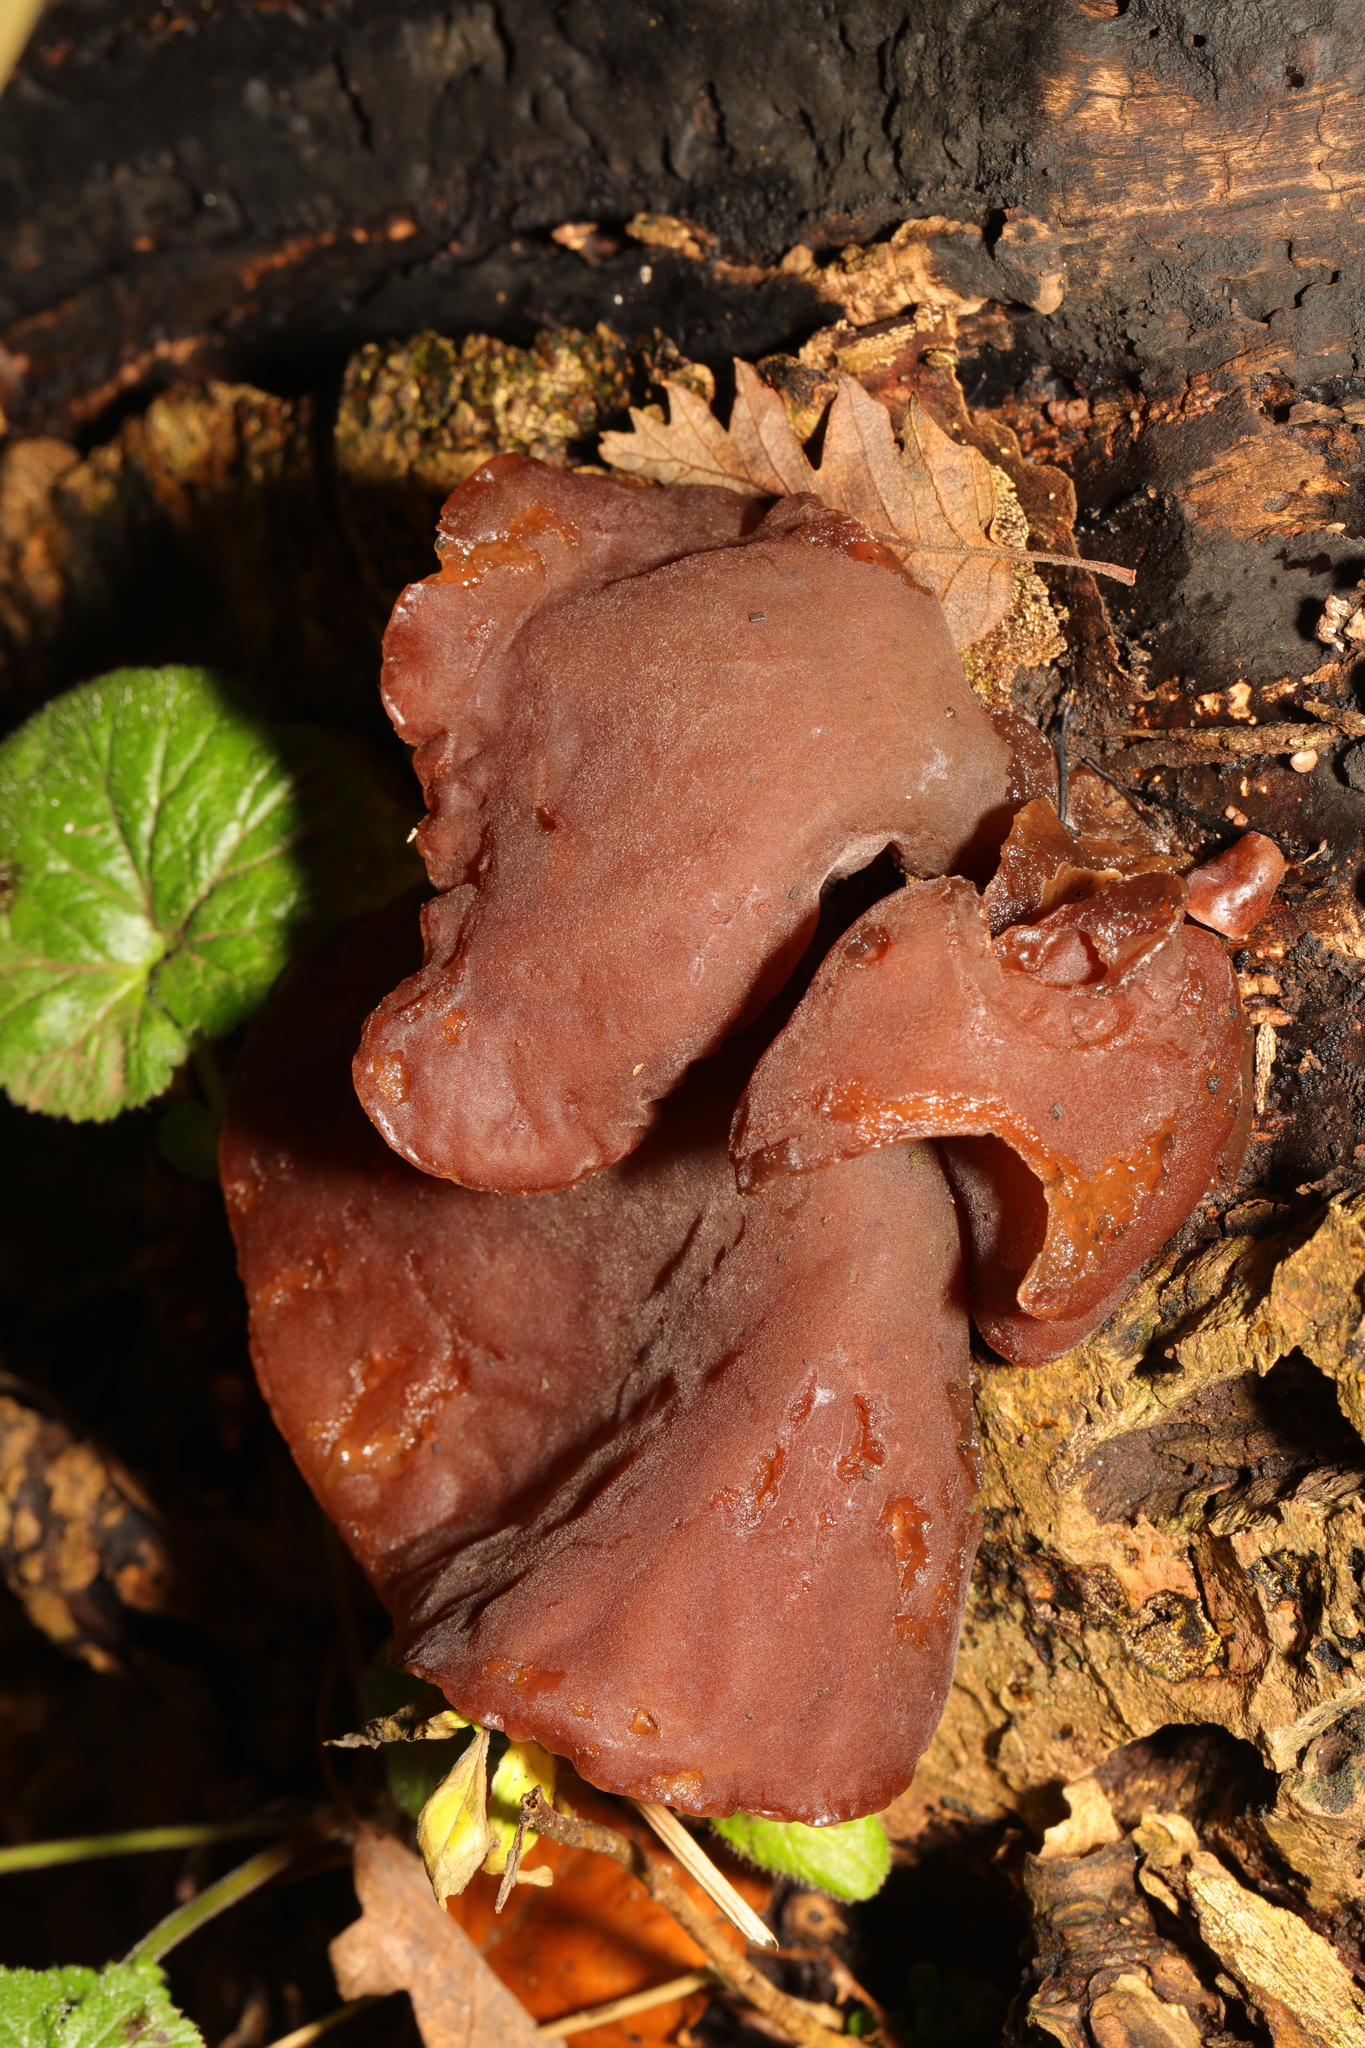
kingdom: Fungi
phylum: Basidiomycota
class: Agaricomycetes
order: Auriculariales
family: Auriculariaceae
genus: Auricularia
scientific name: Auricularia auricula-judae
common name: Jelly ear
